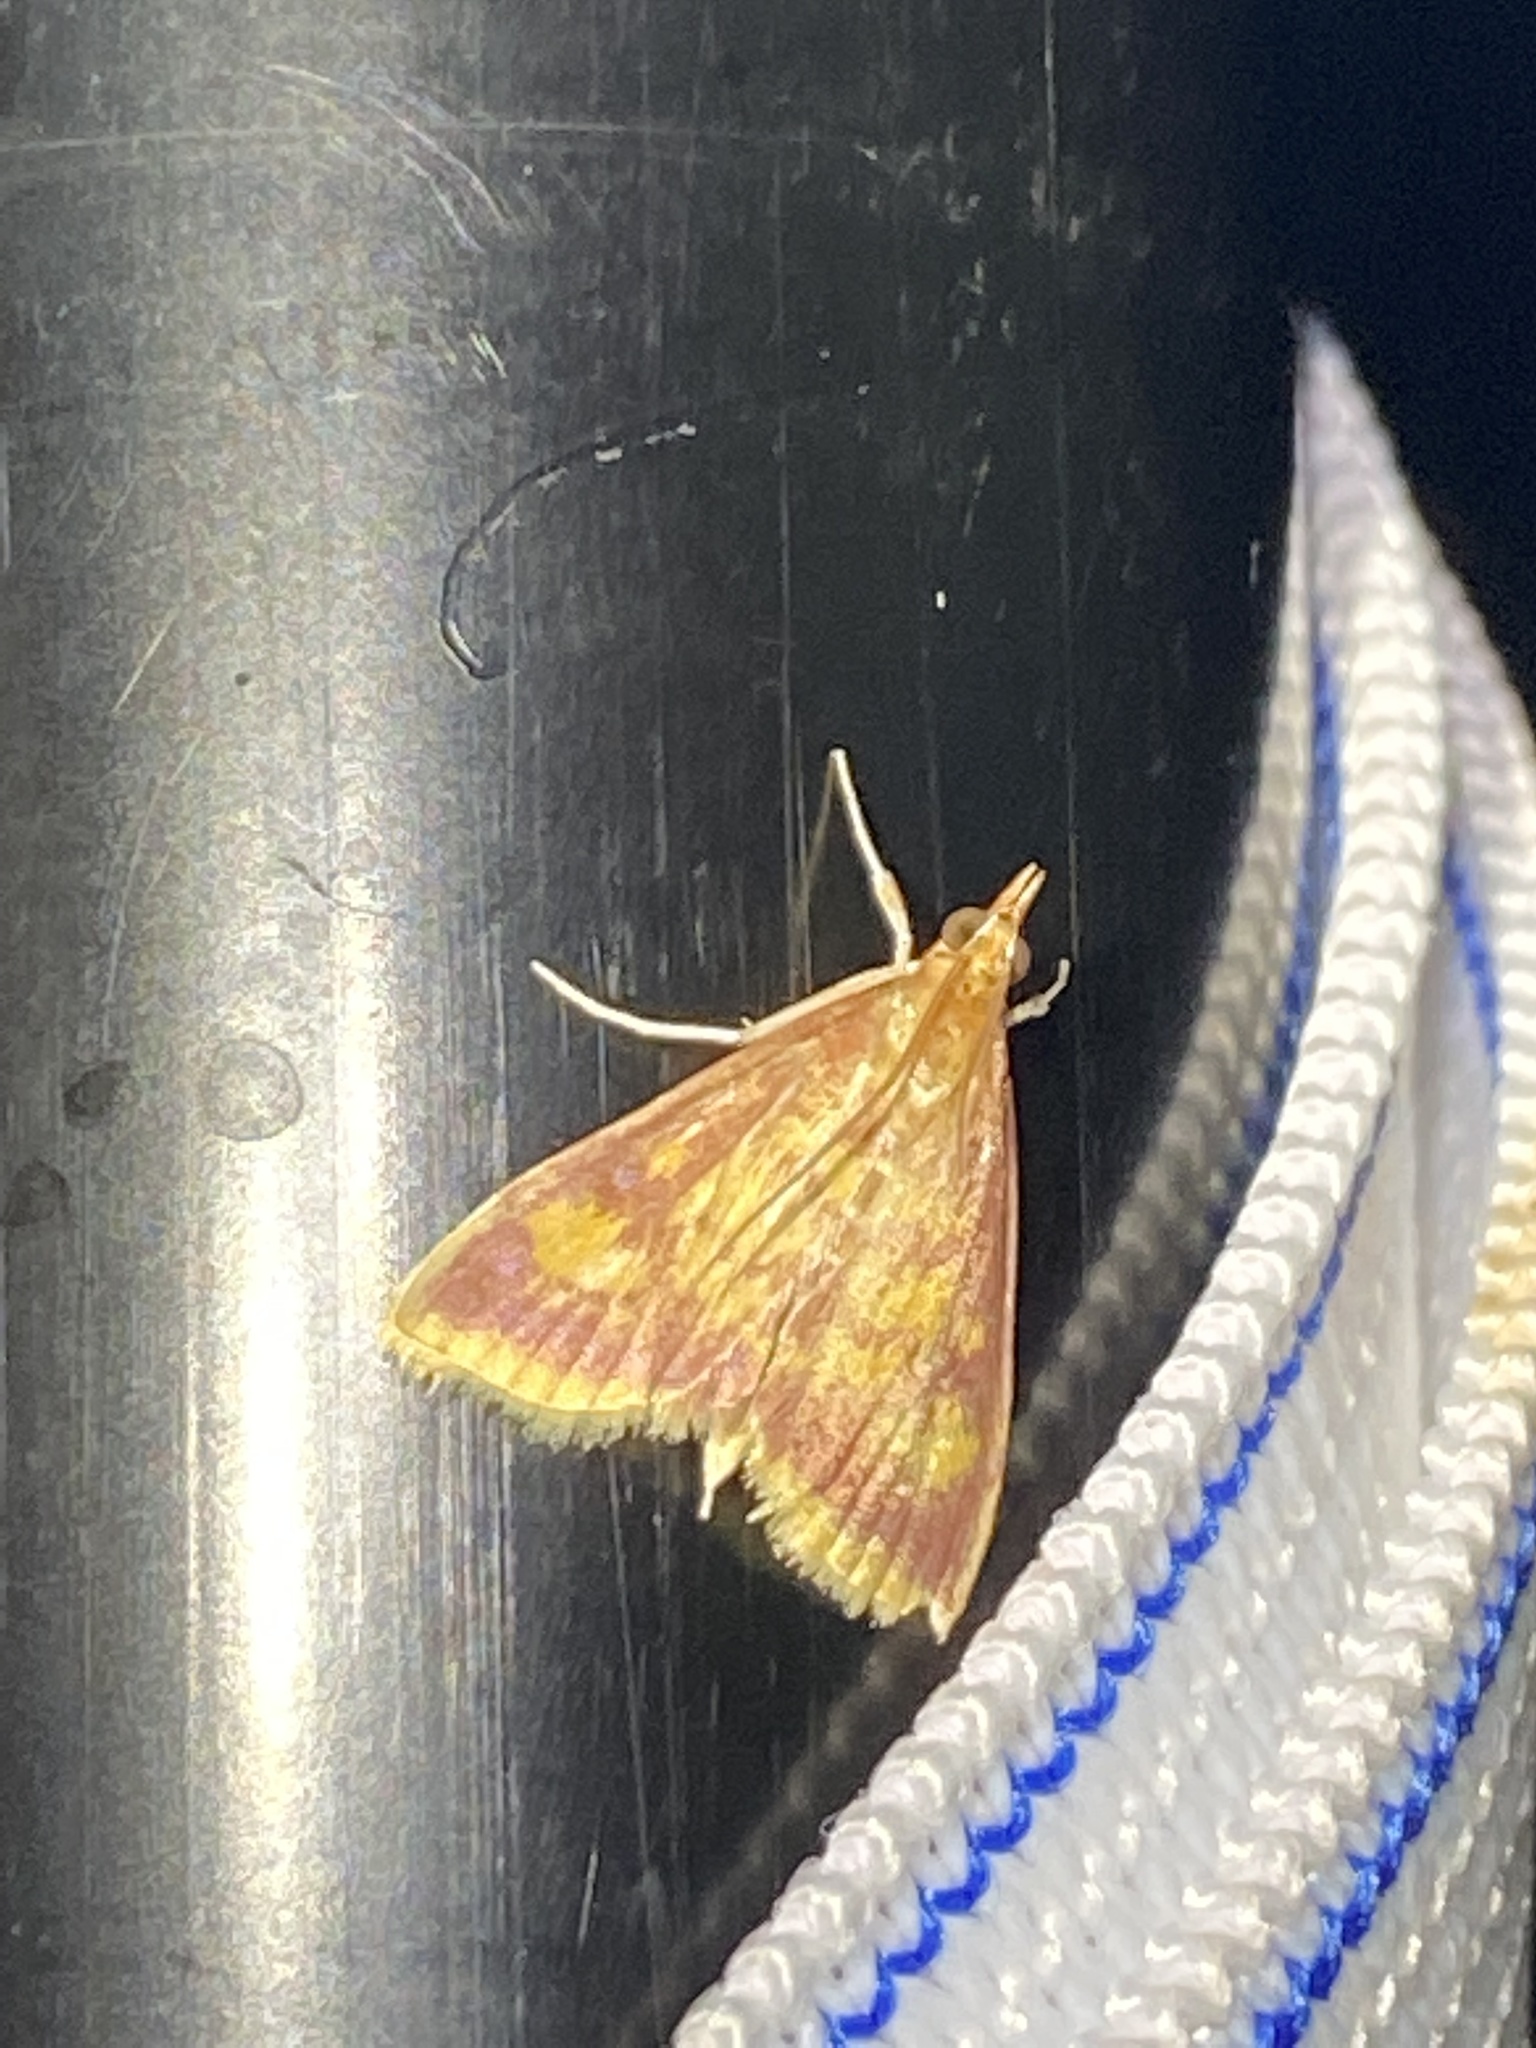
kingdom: Animalia
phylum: Arthropoda
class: Insecta
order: Lepidoptera
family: Crambidae
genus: Pyrausta
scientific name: Pyrausta acrionalis
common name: Mint-loving pyrausta moth
